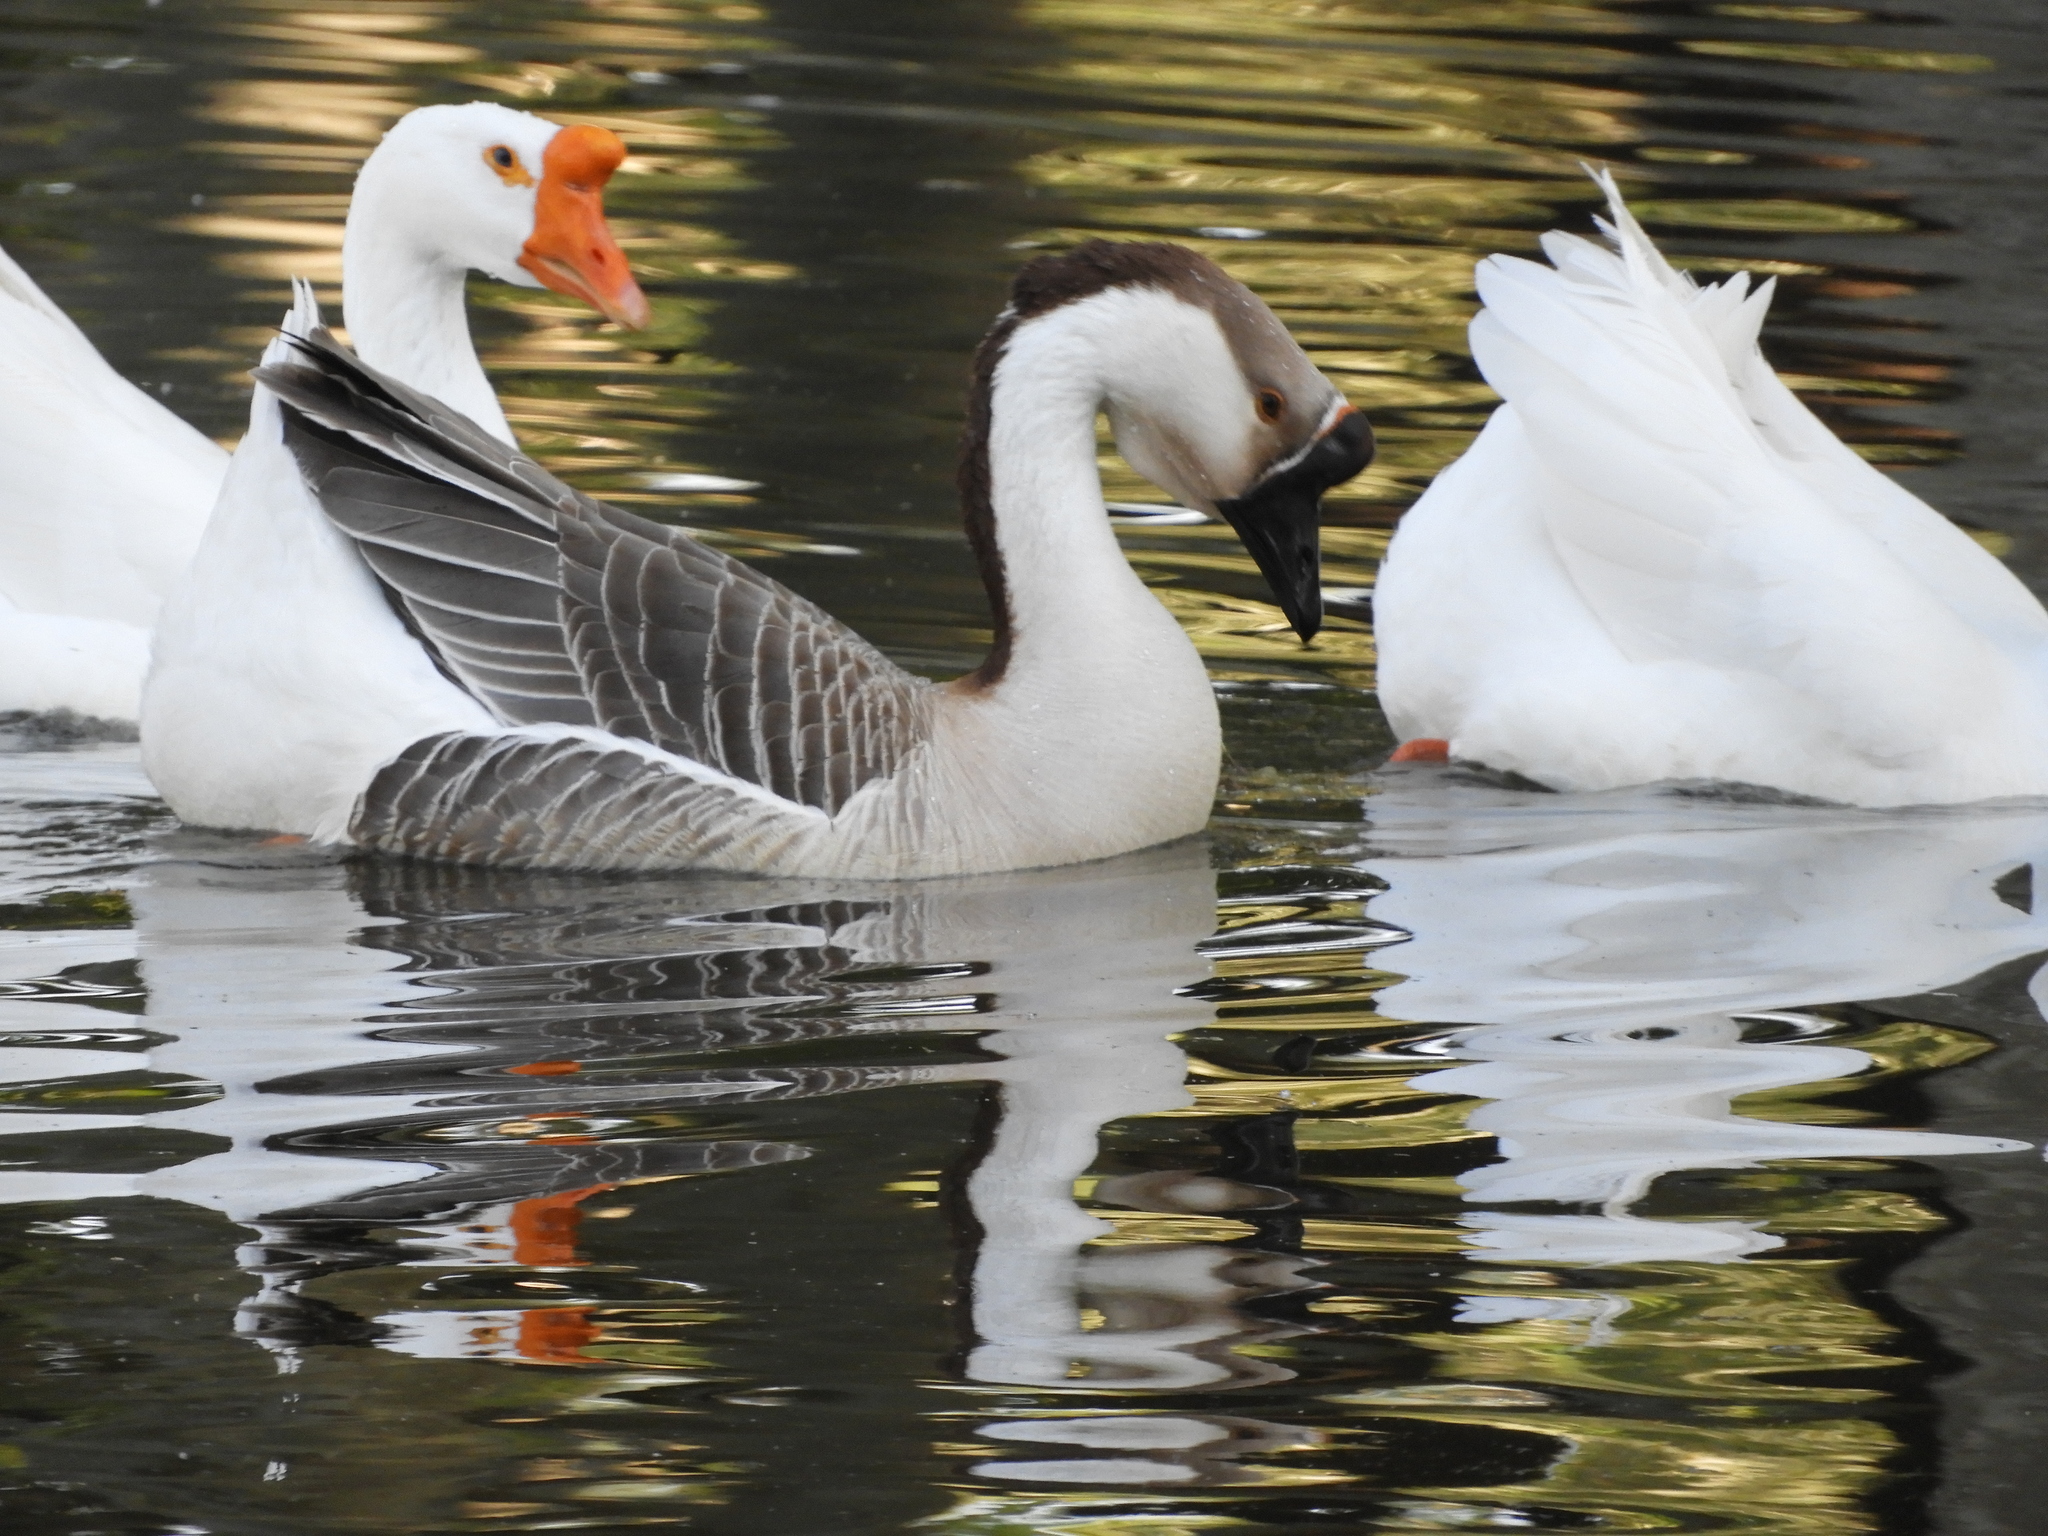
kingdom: Animalia
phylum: Chordata
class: Aves
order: Anseriformes
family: Anatidae
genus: Anser
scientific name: Anser cygnoides
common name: Swan goose
